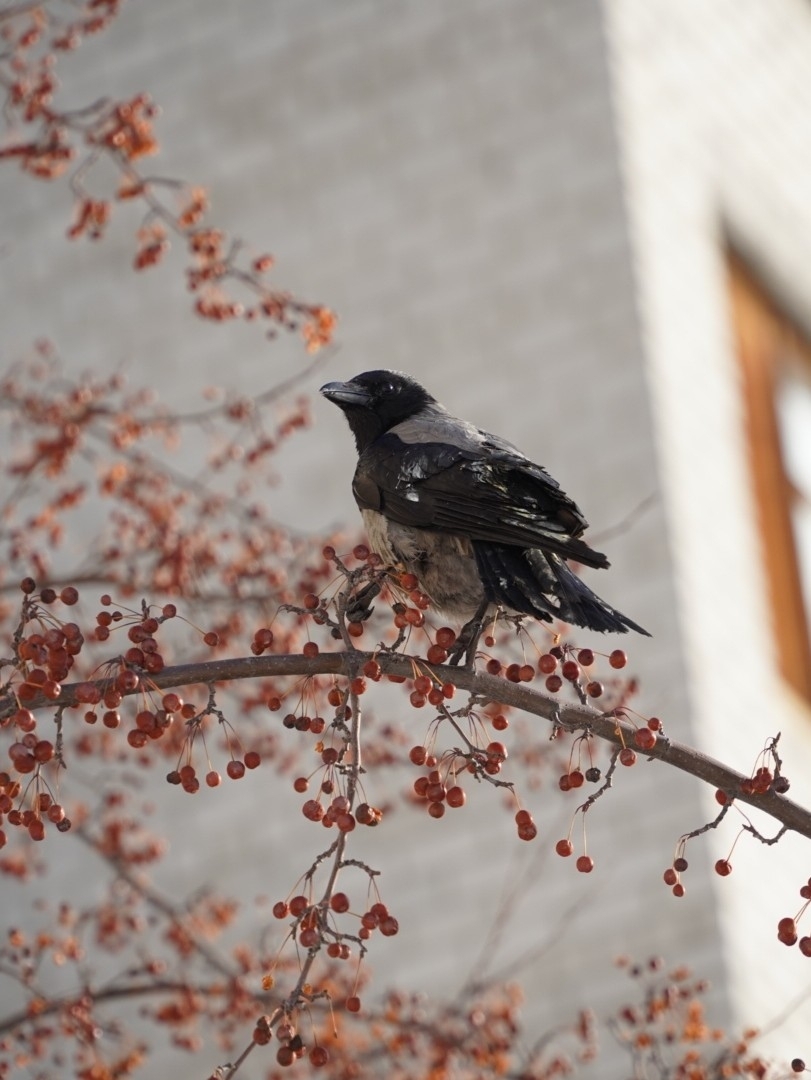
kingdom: Animalia
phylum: Chordata
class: Aves
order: Passeriformes
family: Corvidae
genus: Corvus
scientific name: Corvus cornix
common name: Hooded crow
